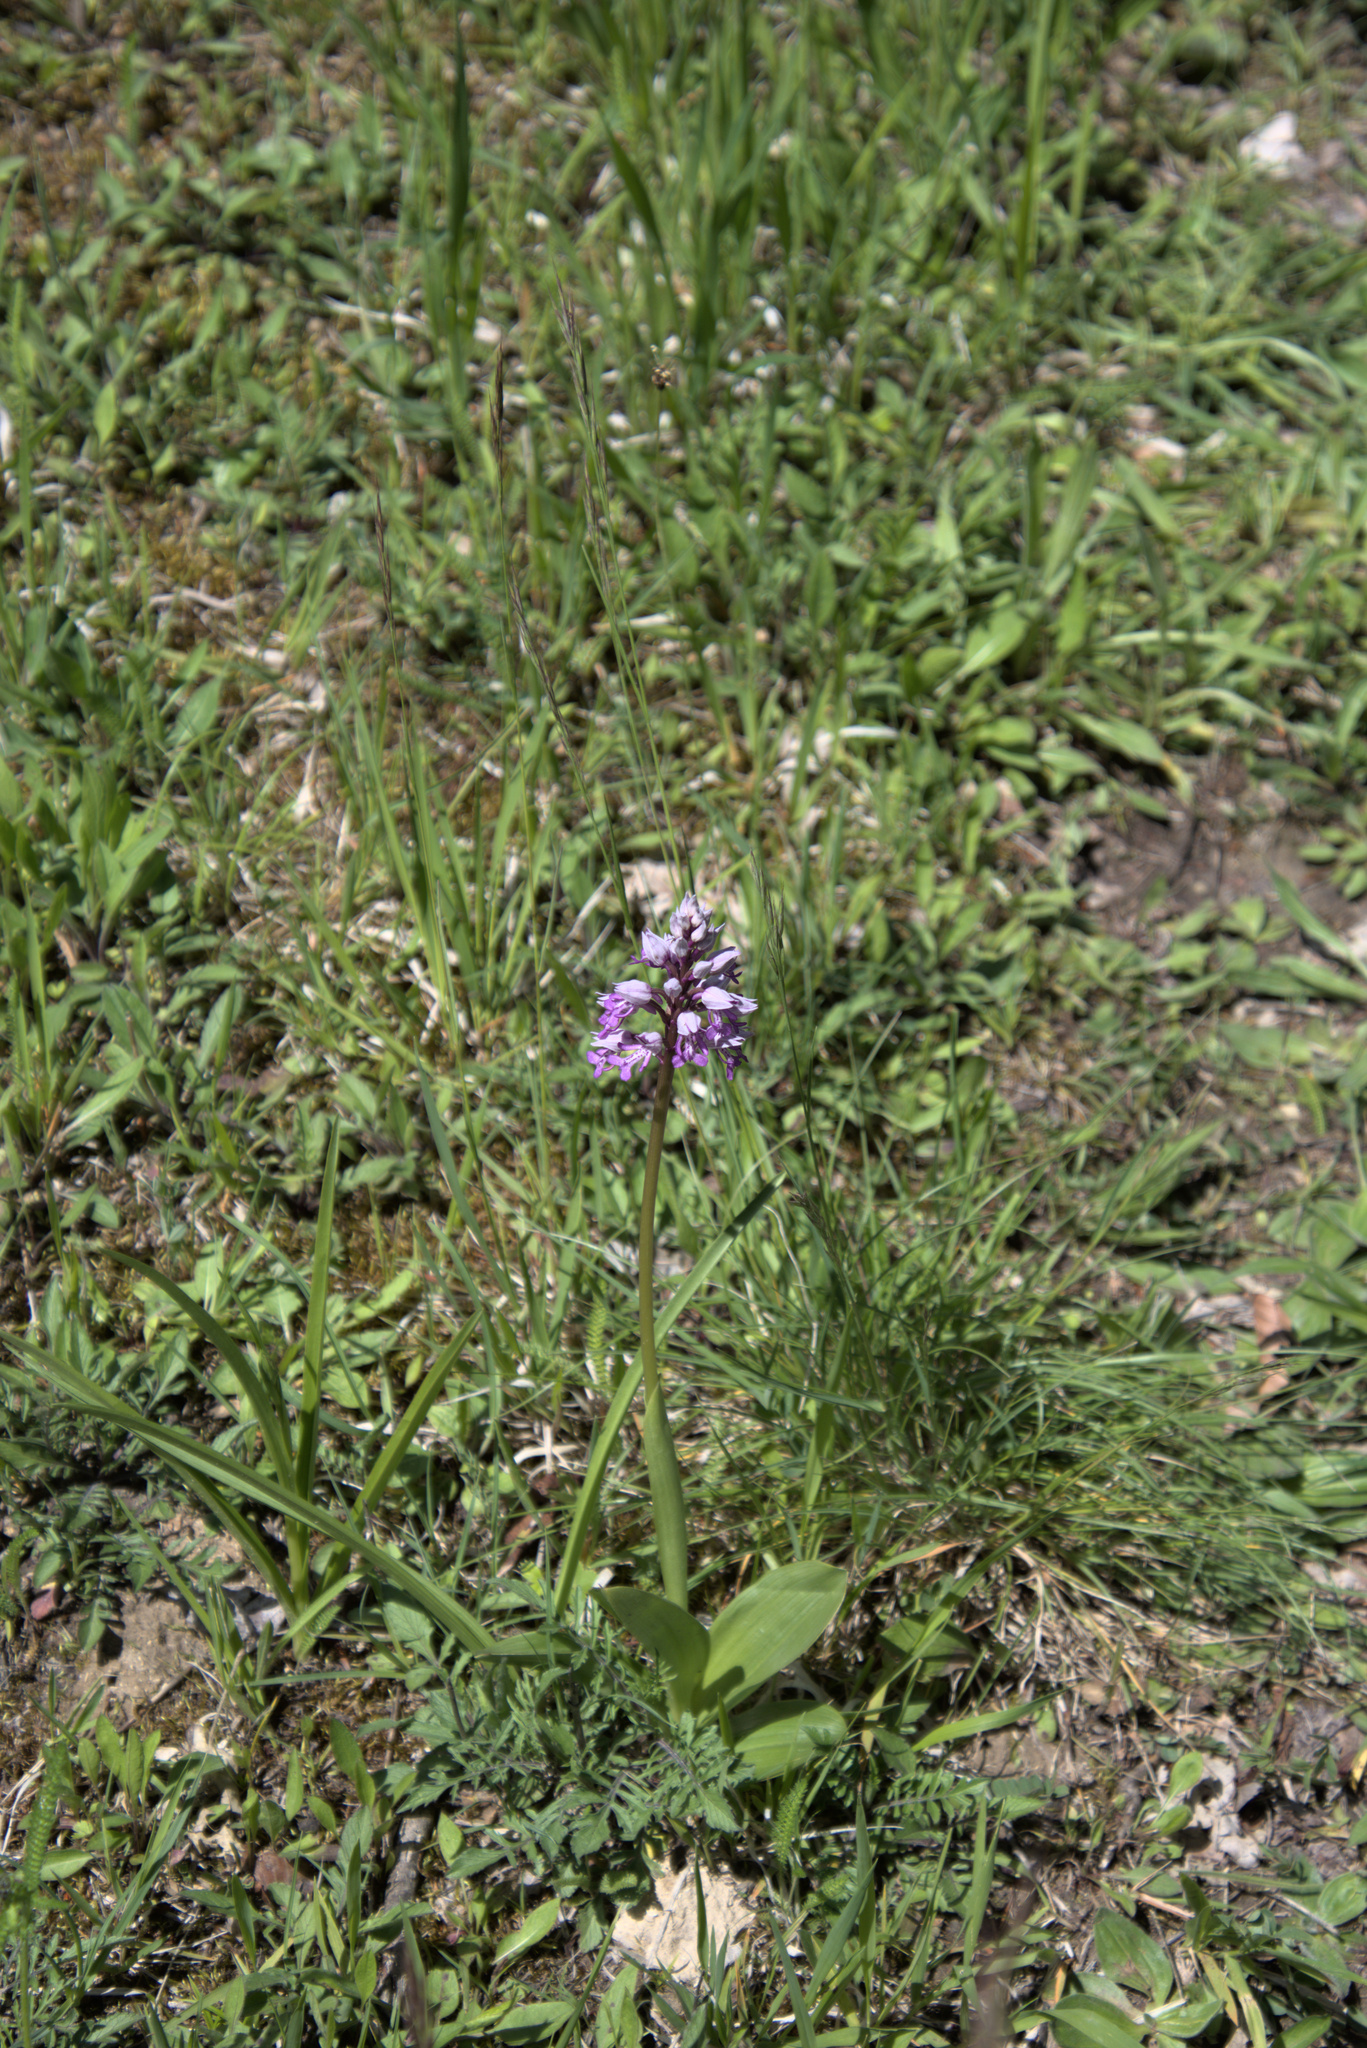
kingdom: Plantae
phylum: Tracheophyta
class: Liliopsida
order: Asparagales
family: Orchidaceae
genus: Orchis
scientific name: Orchis militaris
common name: Military orchid
